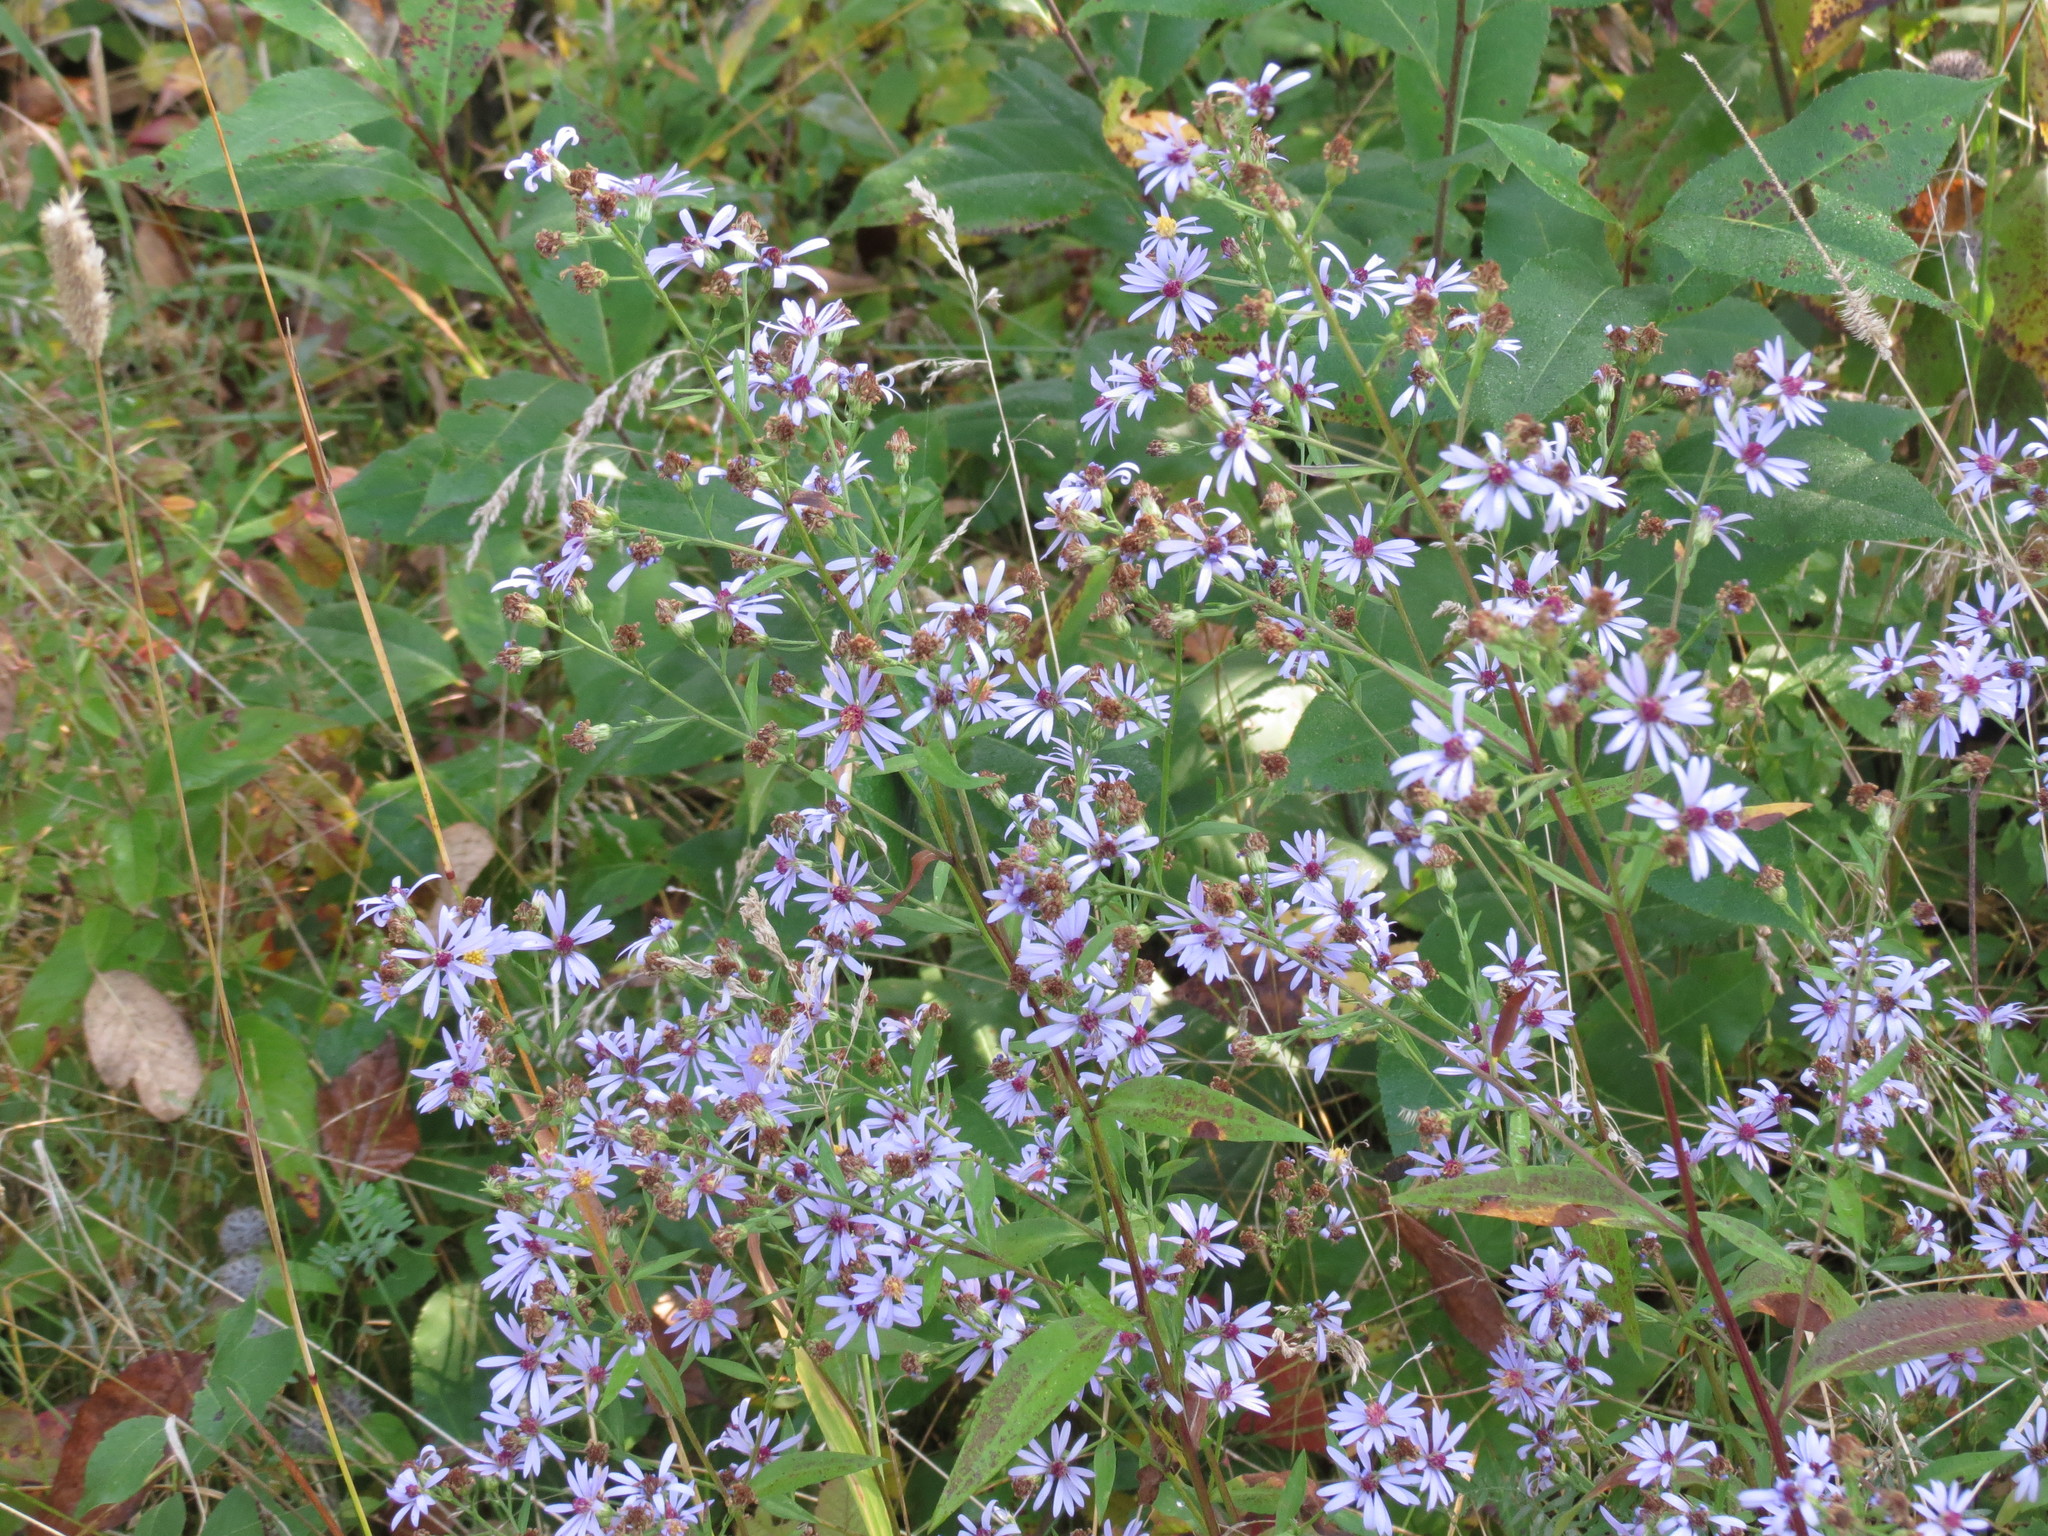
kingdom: Plantae
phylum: Tracheophyta
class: Magnoliopsida
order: Asterales
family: Asteraceae
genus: Symphyotrichum
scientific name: Symphyotrichum ciliolatum
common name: Fringed blue aster
